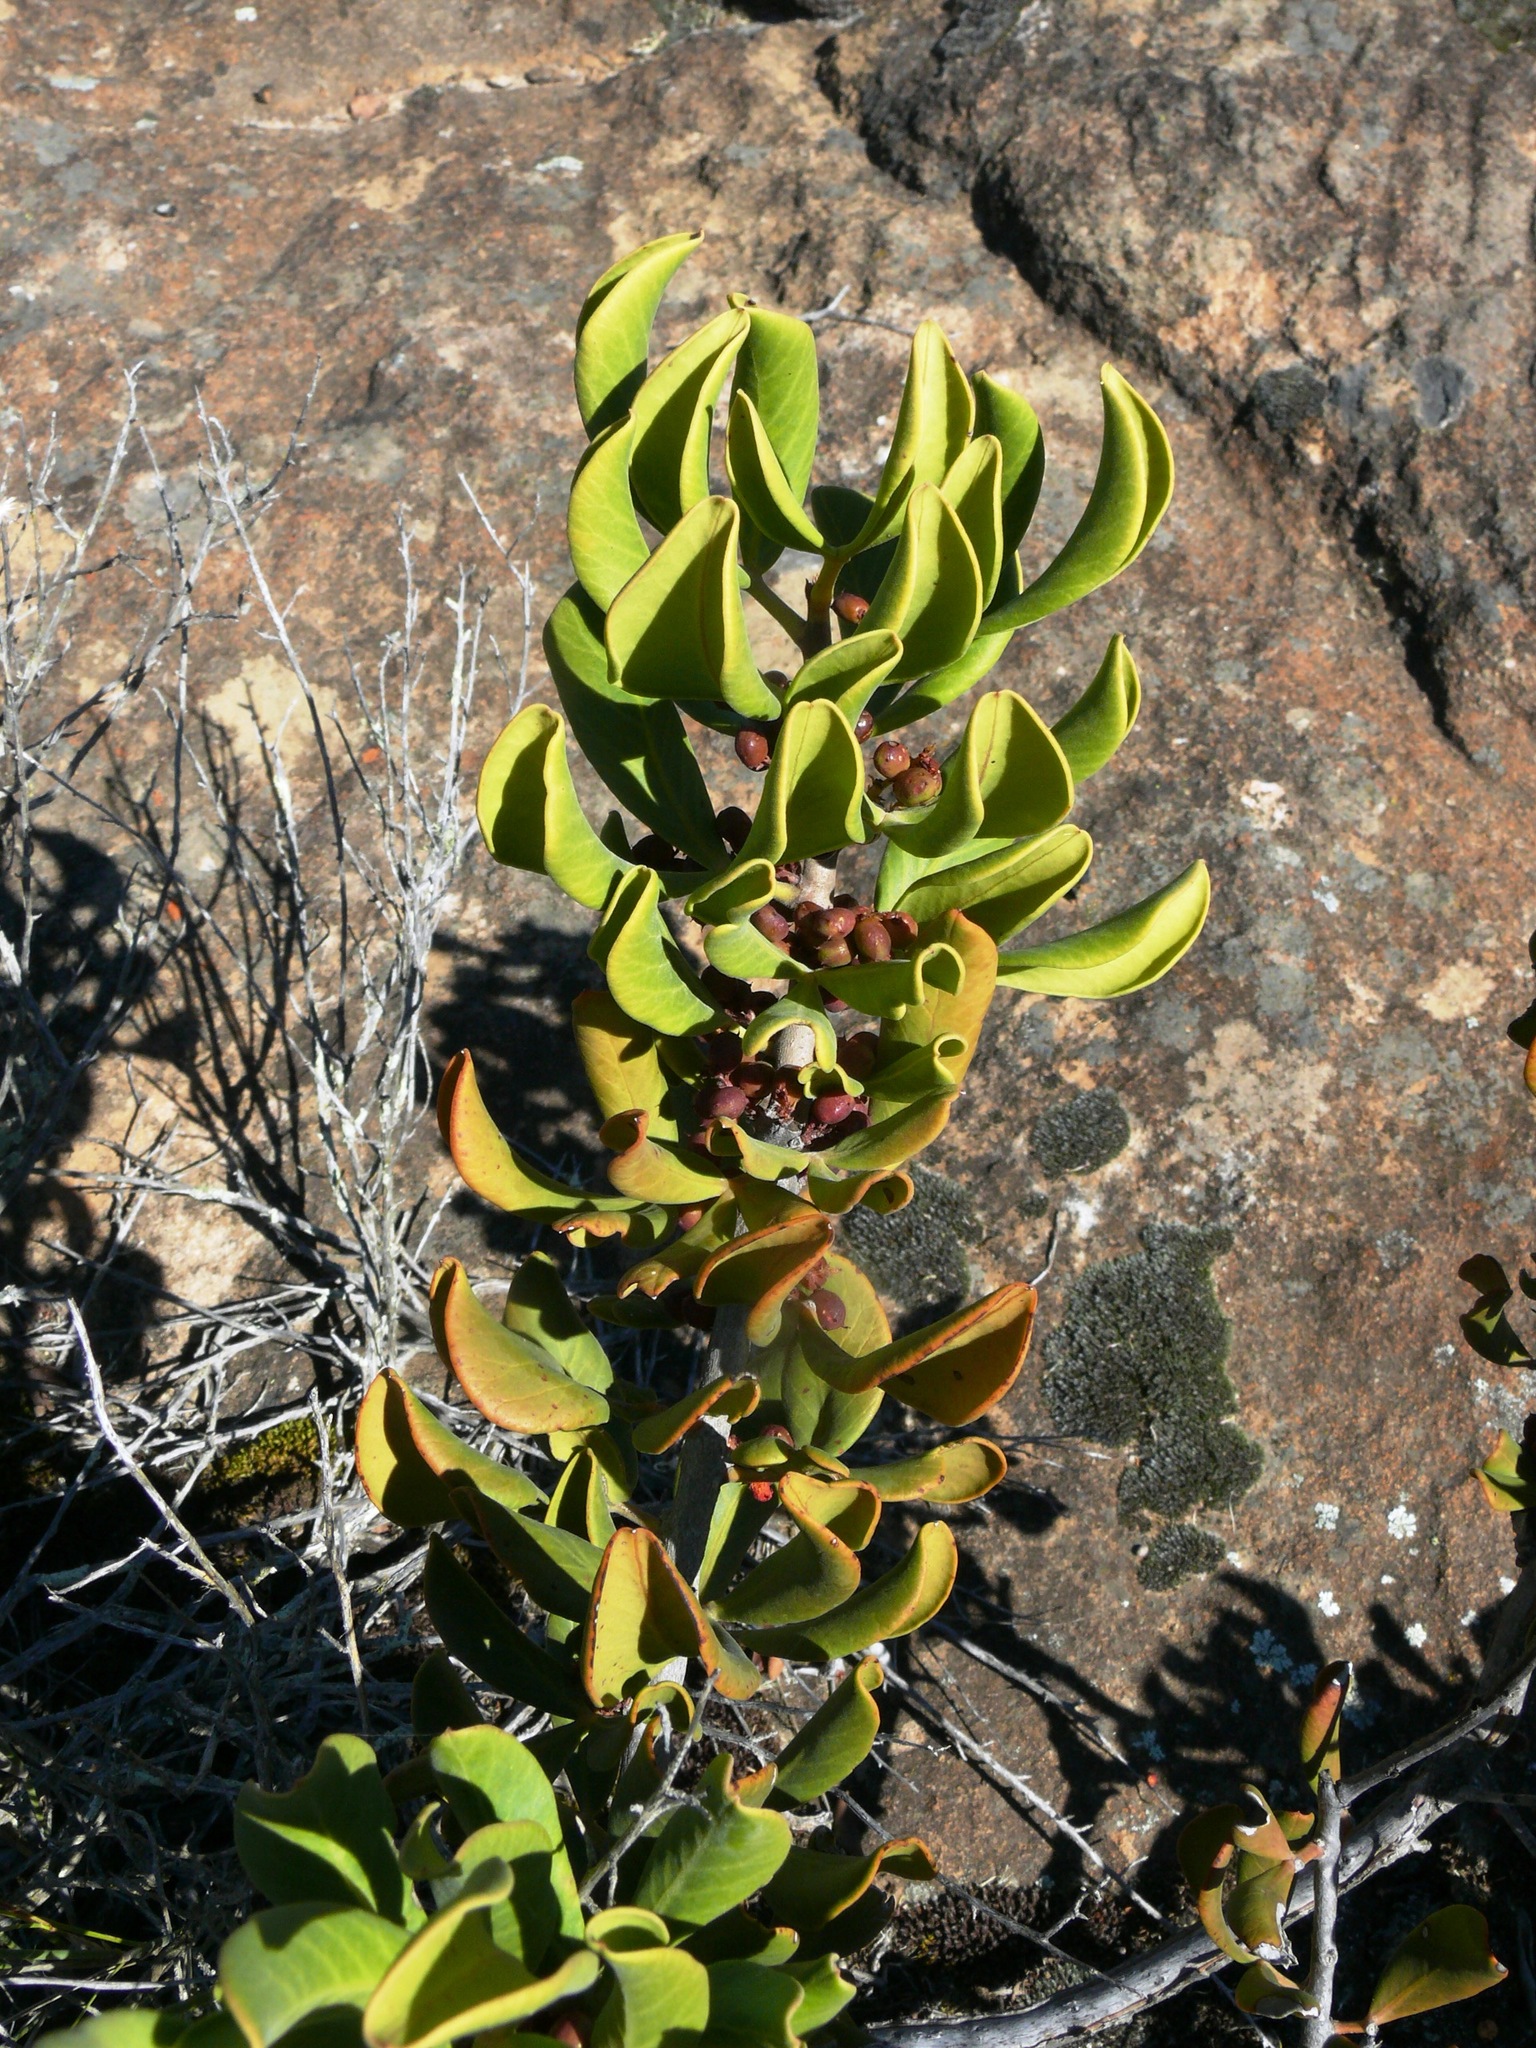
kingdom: Plantae
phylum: Tracheophyta
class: Magnoliopsida
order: Sapindales
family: Anacardiaceae
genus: Searsia
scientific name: Searsia scytophylla
